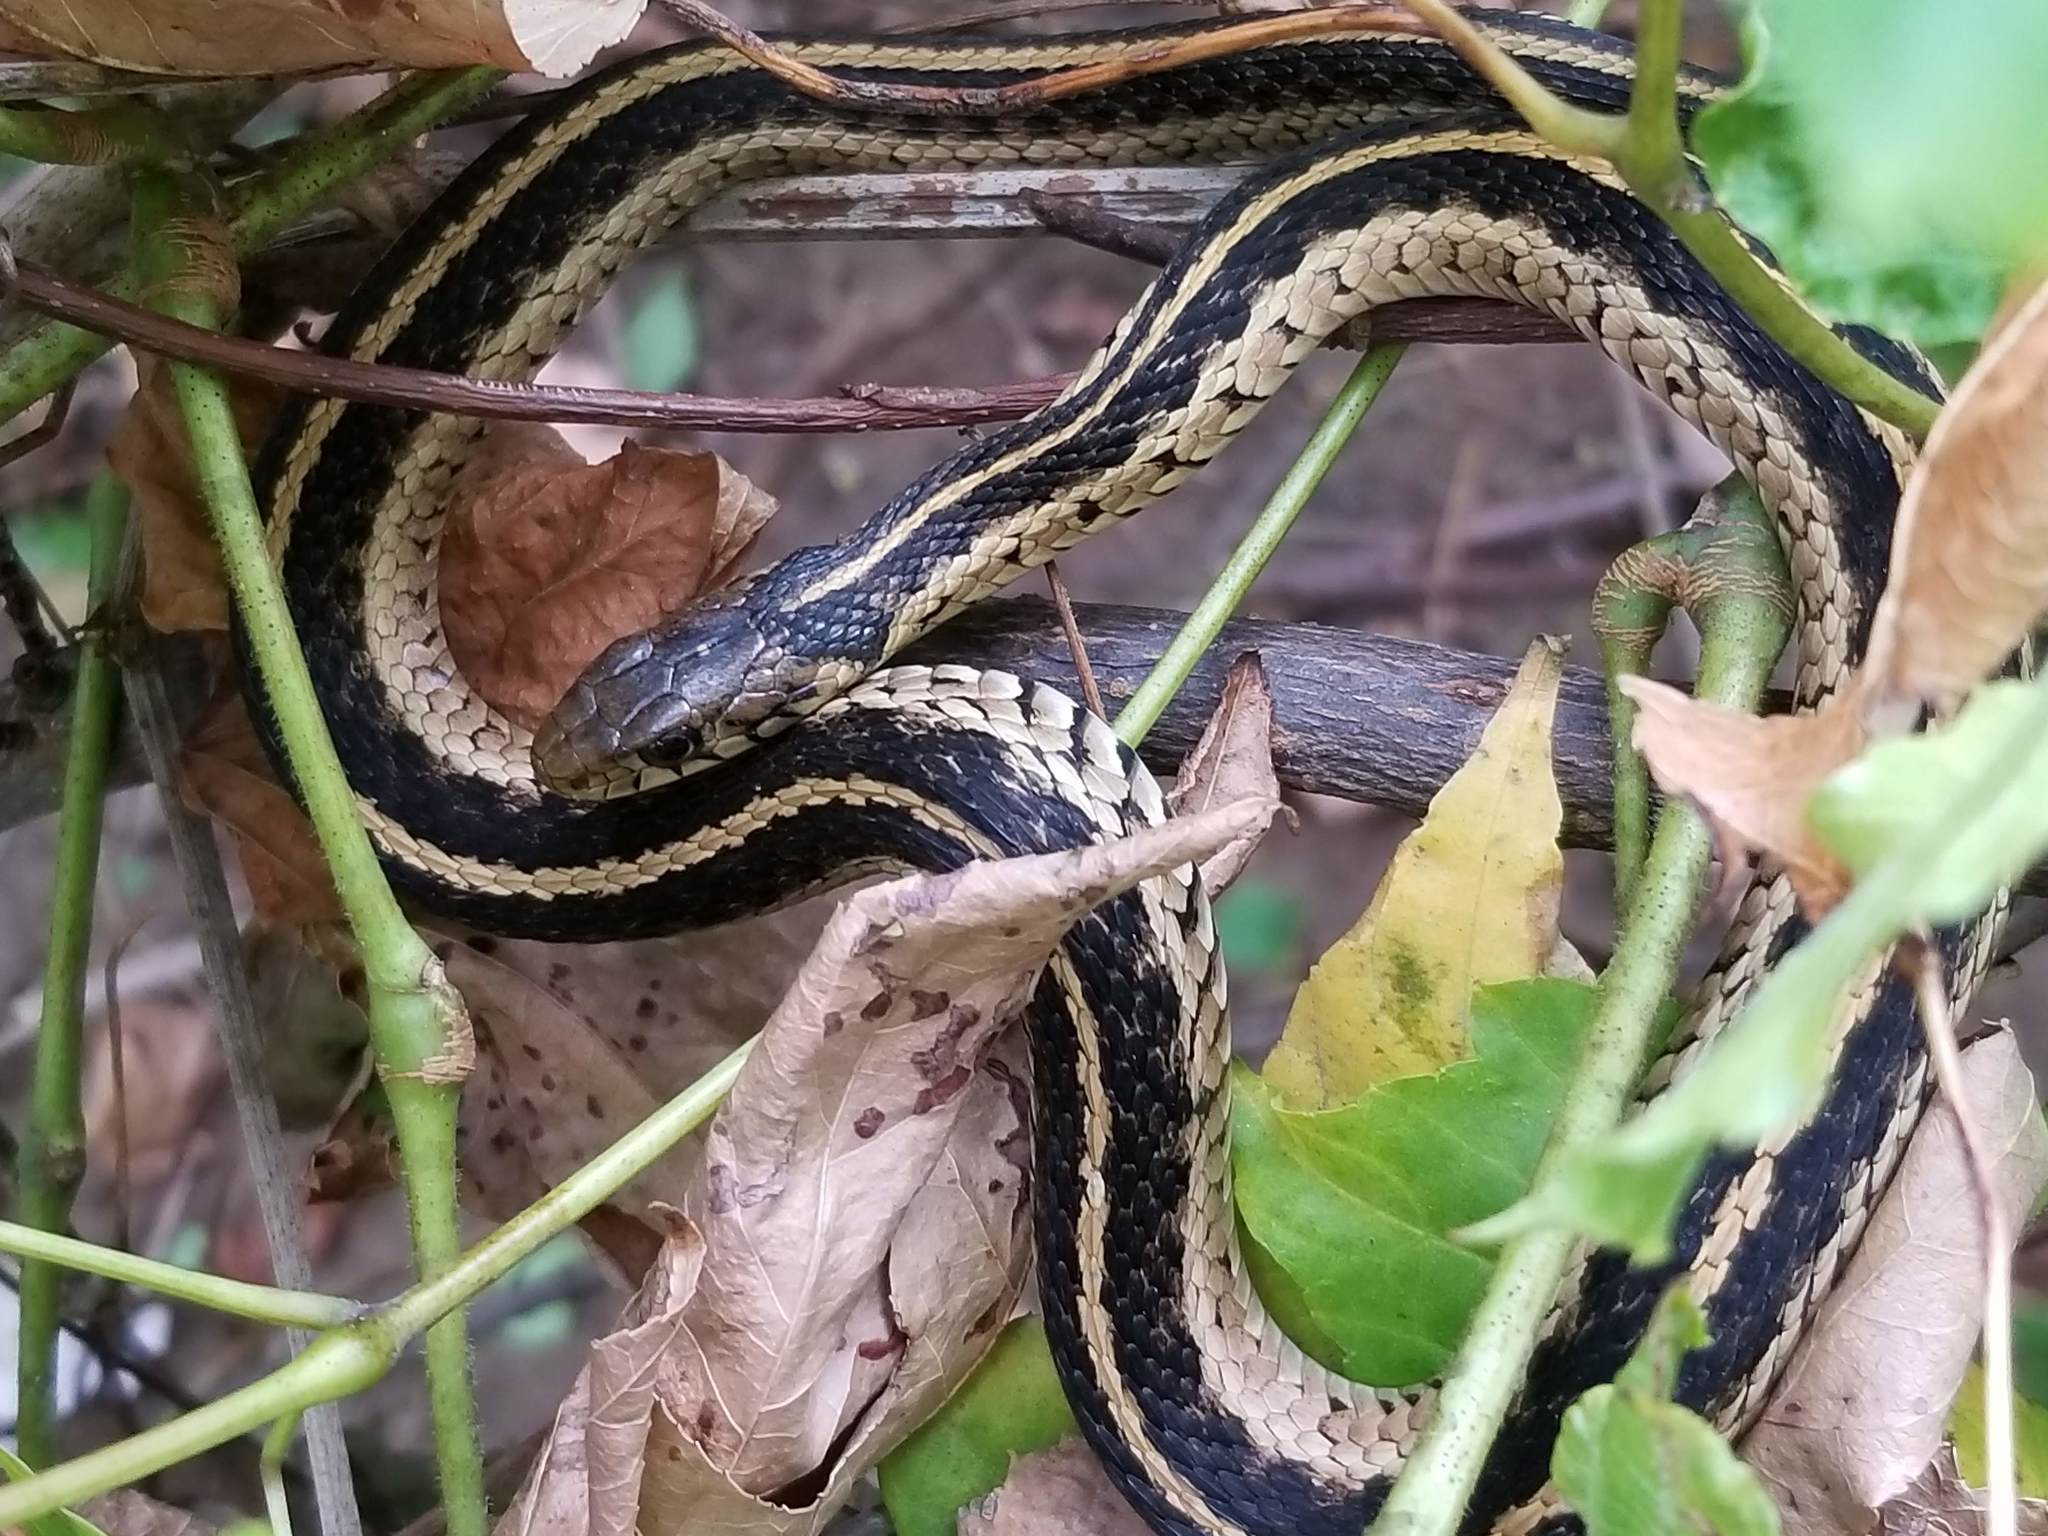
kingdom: Animalia
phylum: Chordata
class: Squamata
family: Colubridae
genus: Thamnophis
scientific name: Thamnophis sirtalis
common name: Common garter snake
